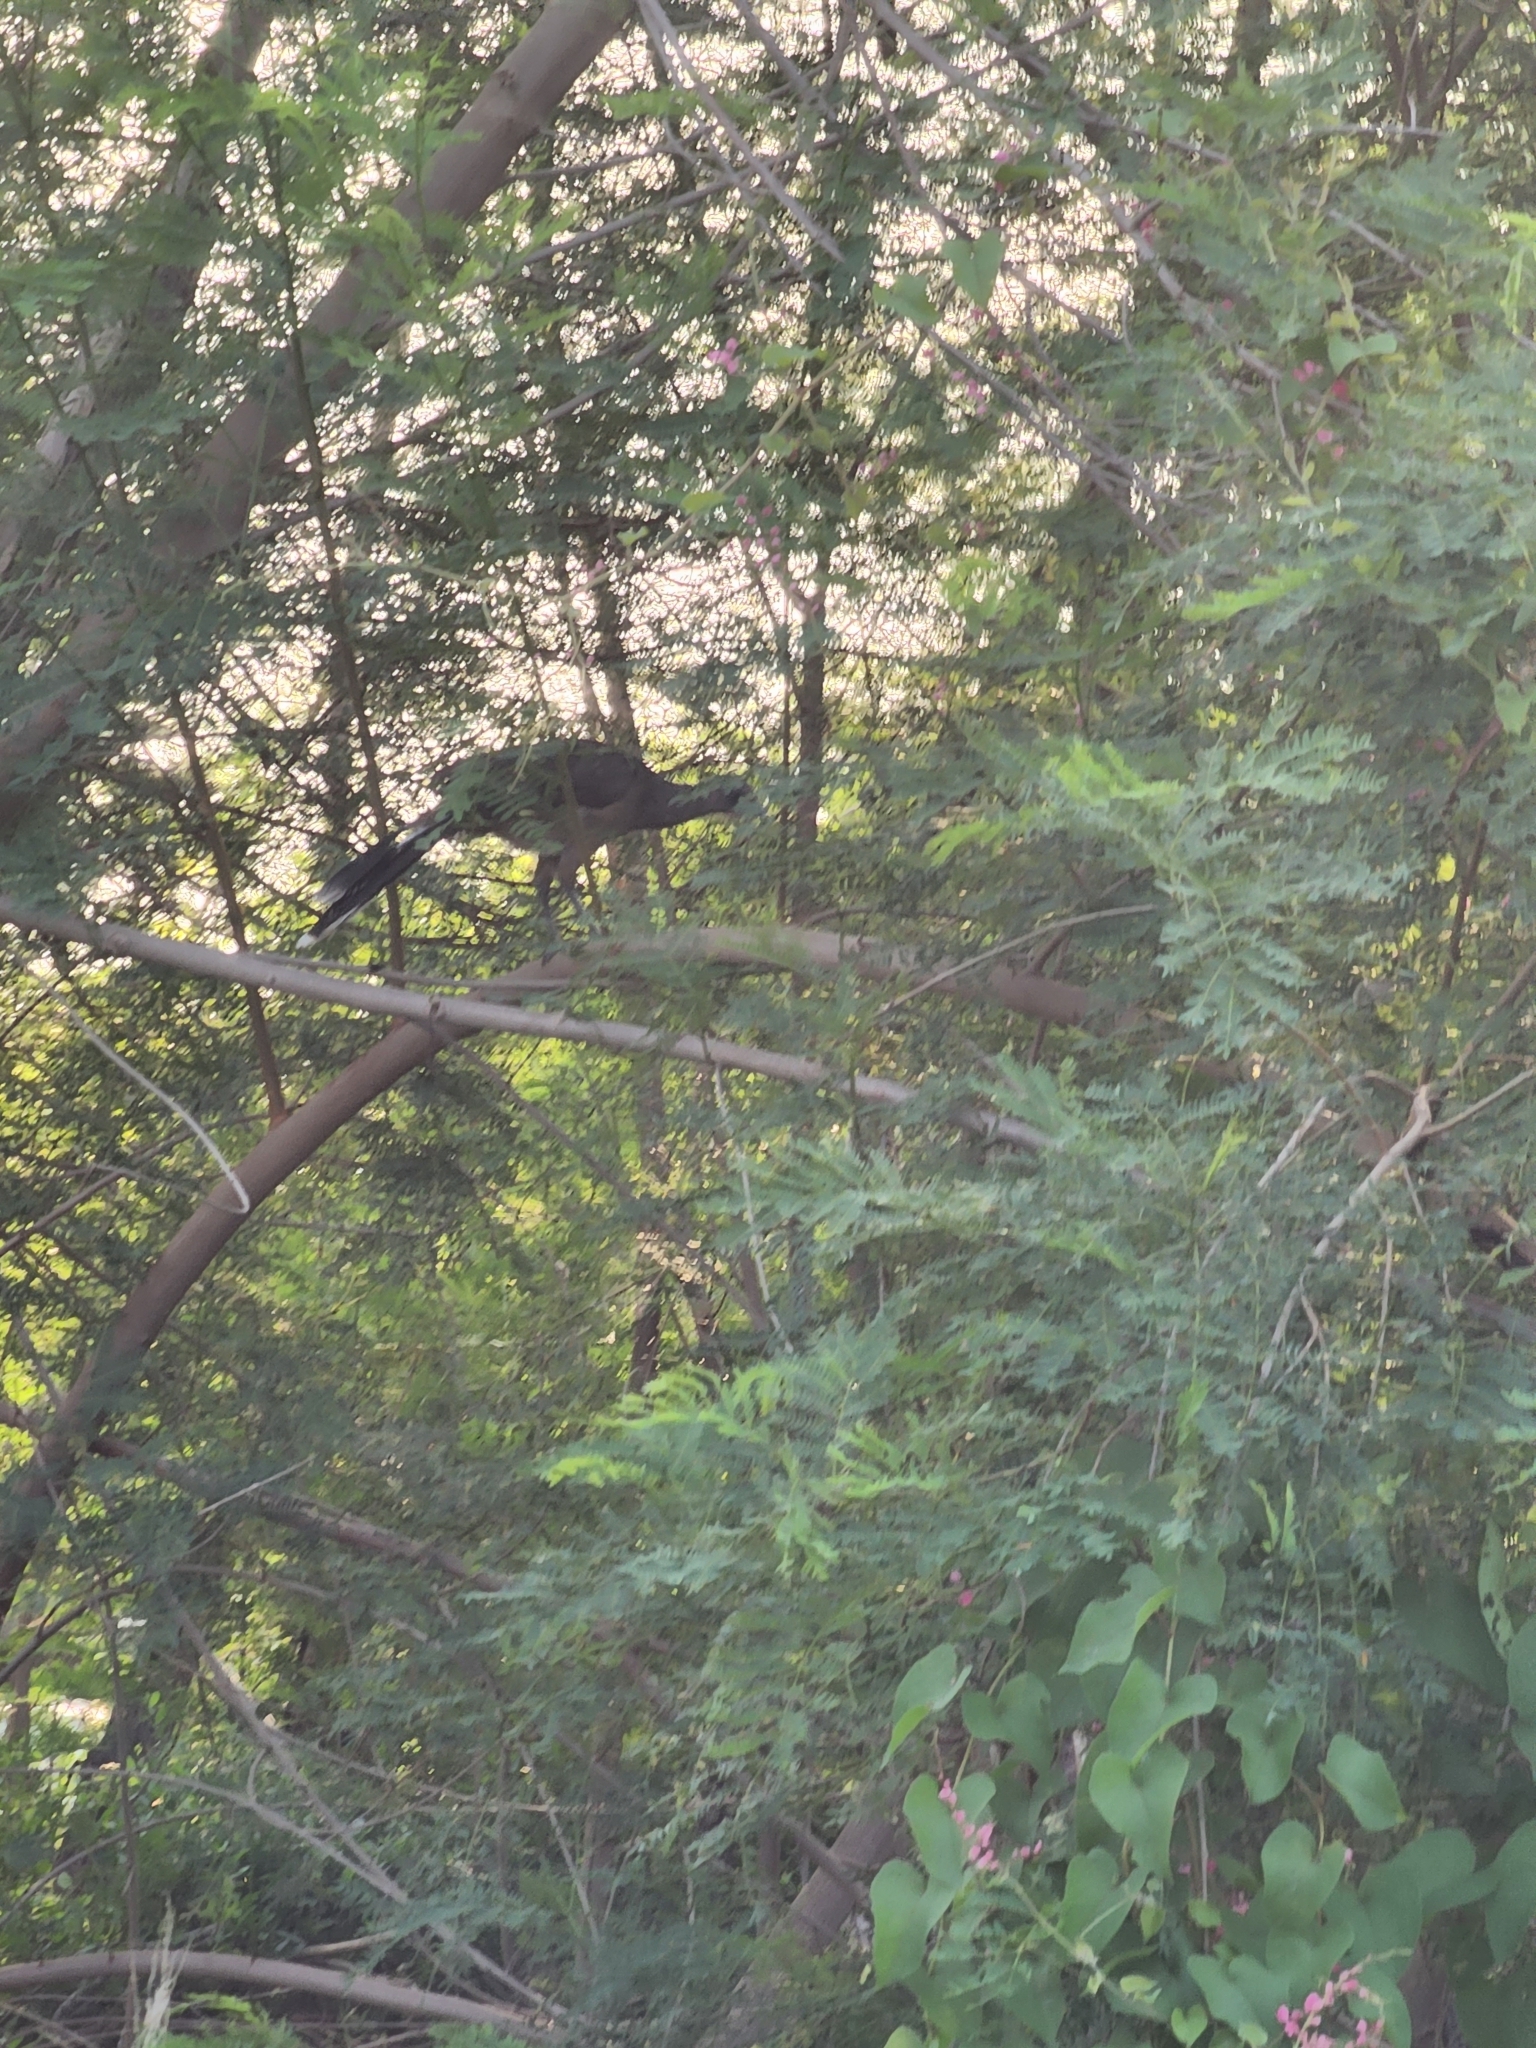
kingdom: Animalia
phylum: Chordata
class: Aves
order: Galliformes
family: Cracidae
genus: Ortalis
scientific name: Ortalis vetula
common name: Plain chachalaca
